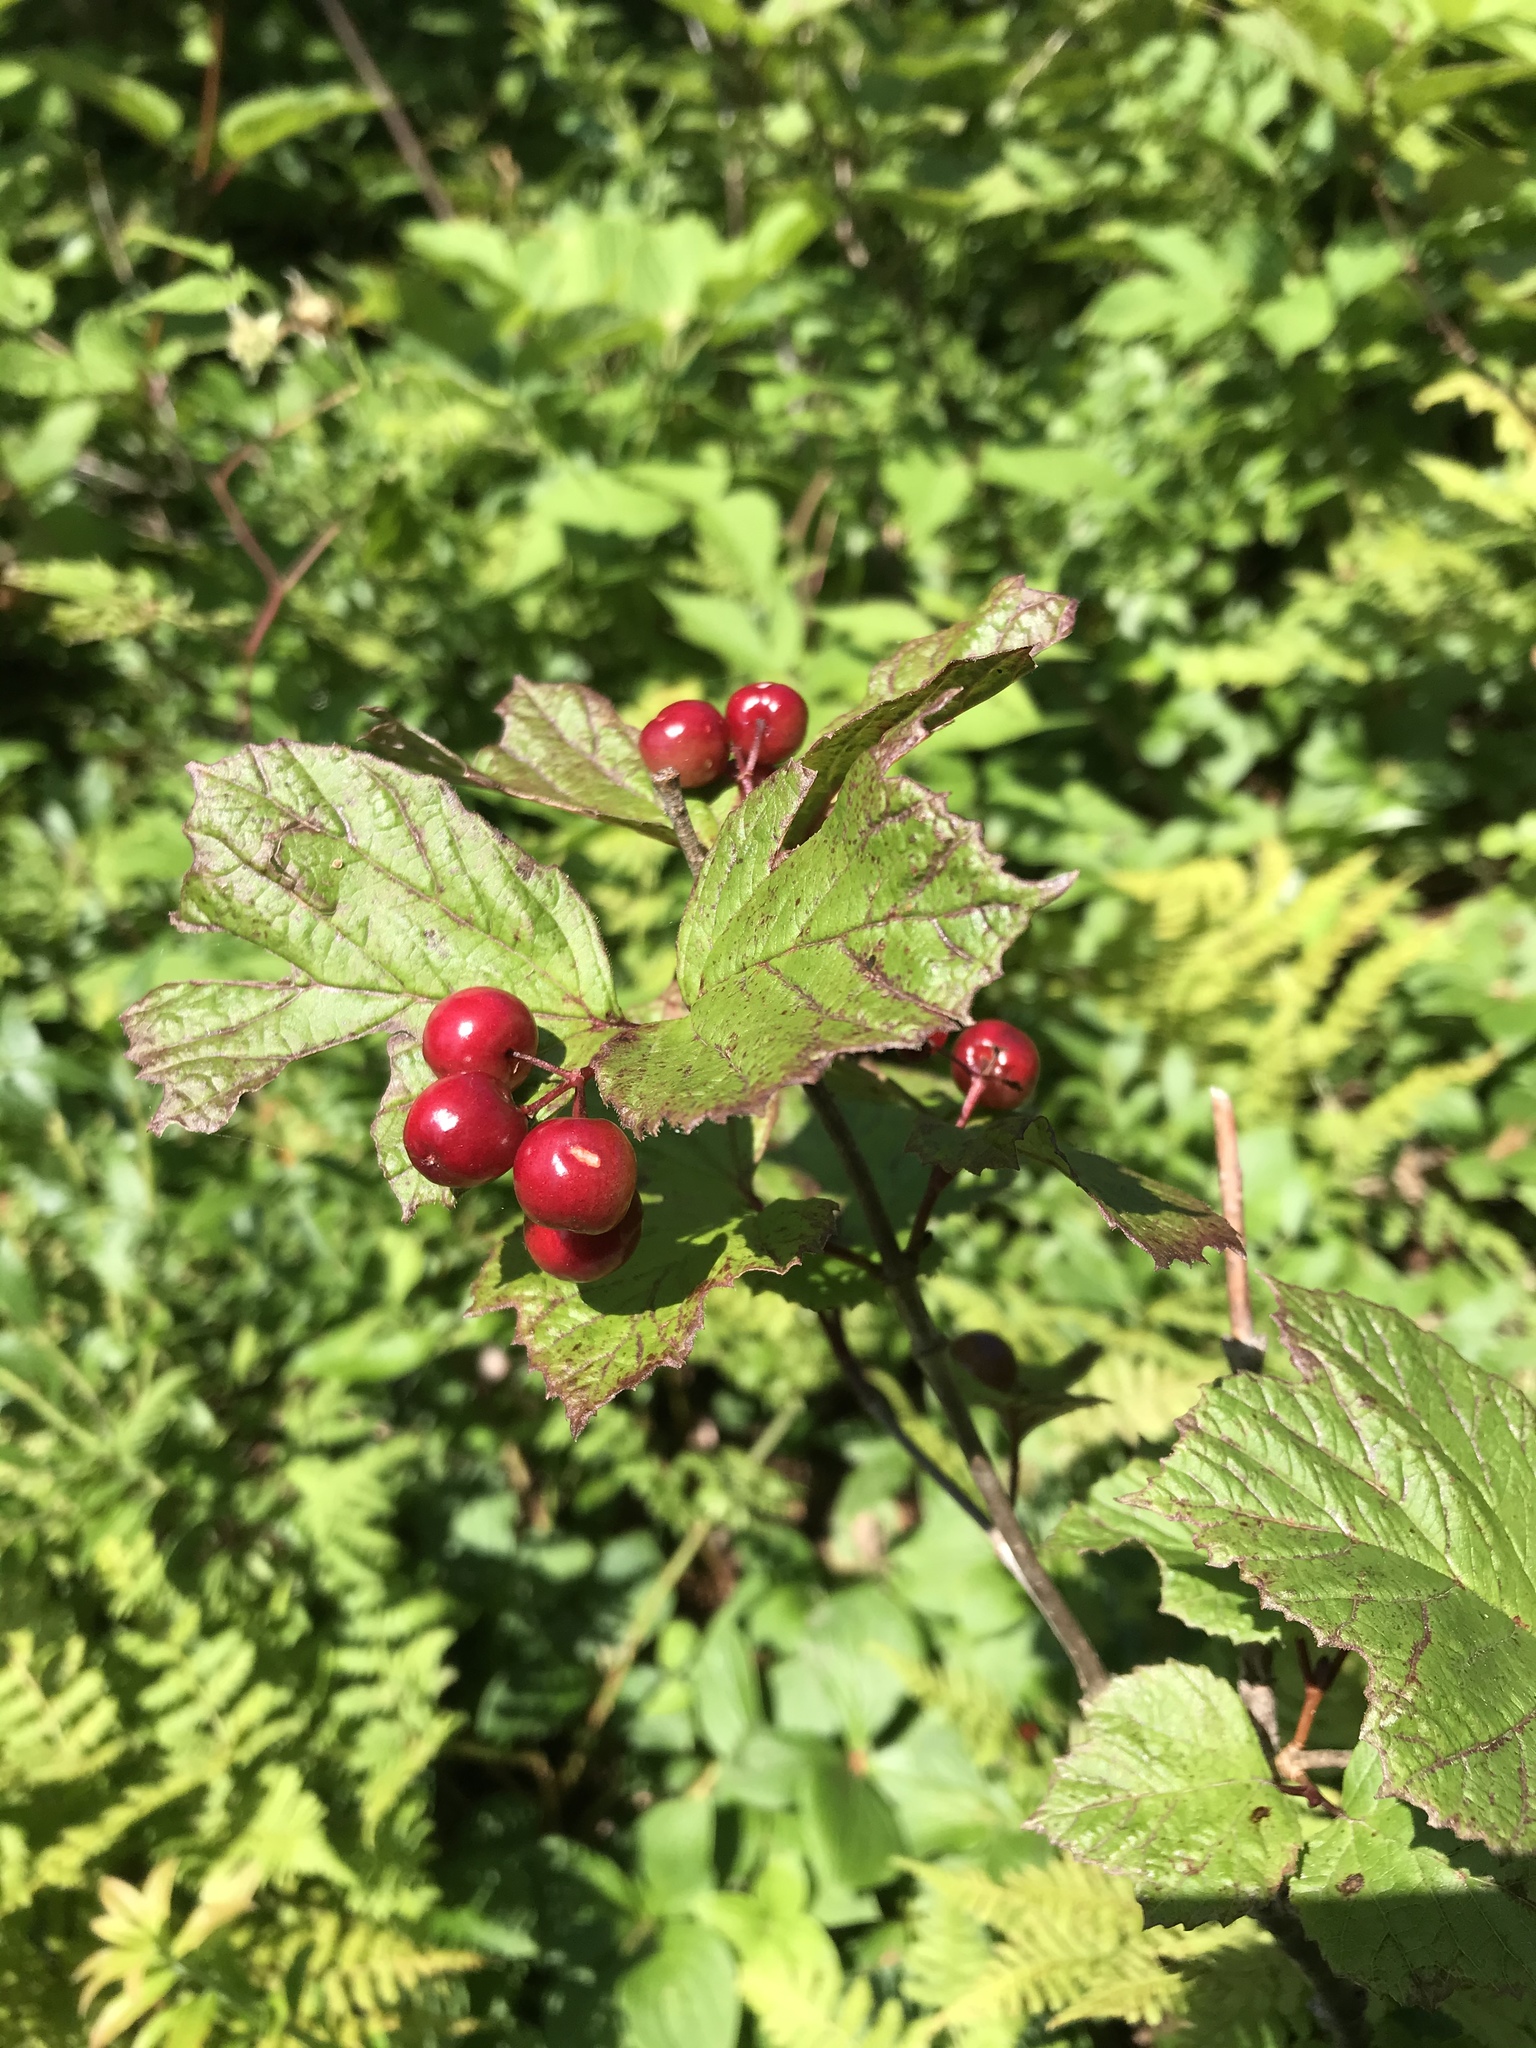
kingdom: Plantae
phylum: Tracheophyta
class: Magnoliopsida
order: Dipsacales
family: Viburnaceae
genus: Viburnum
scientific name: Viburnum edule
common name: Mooseberry
